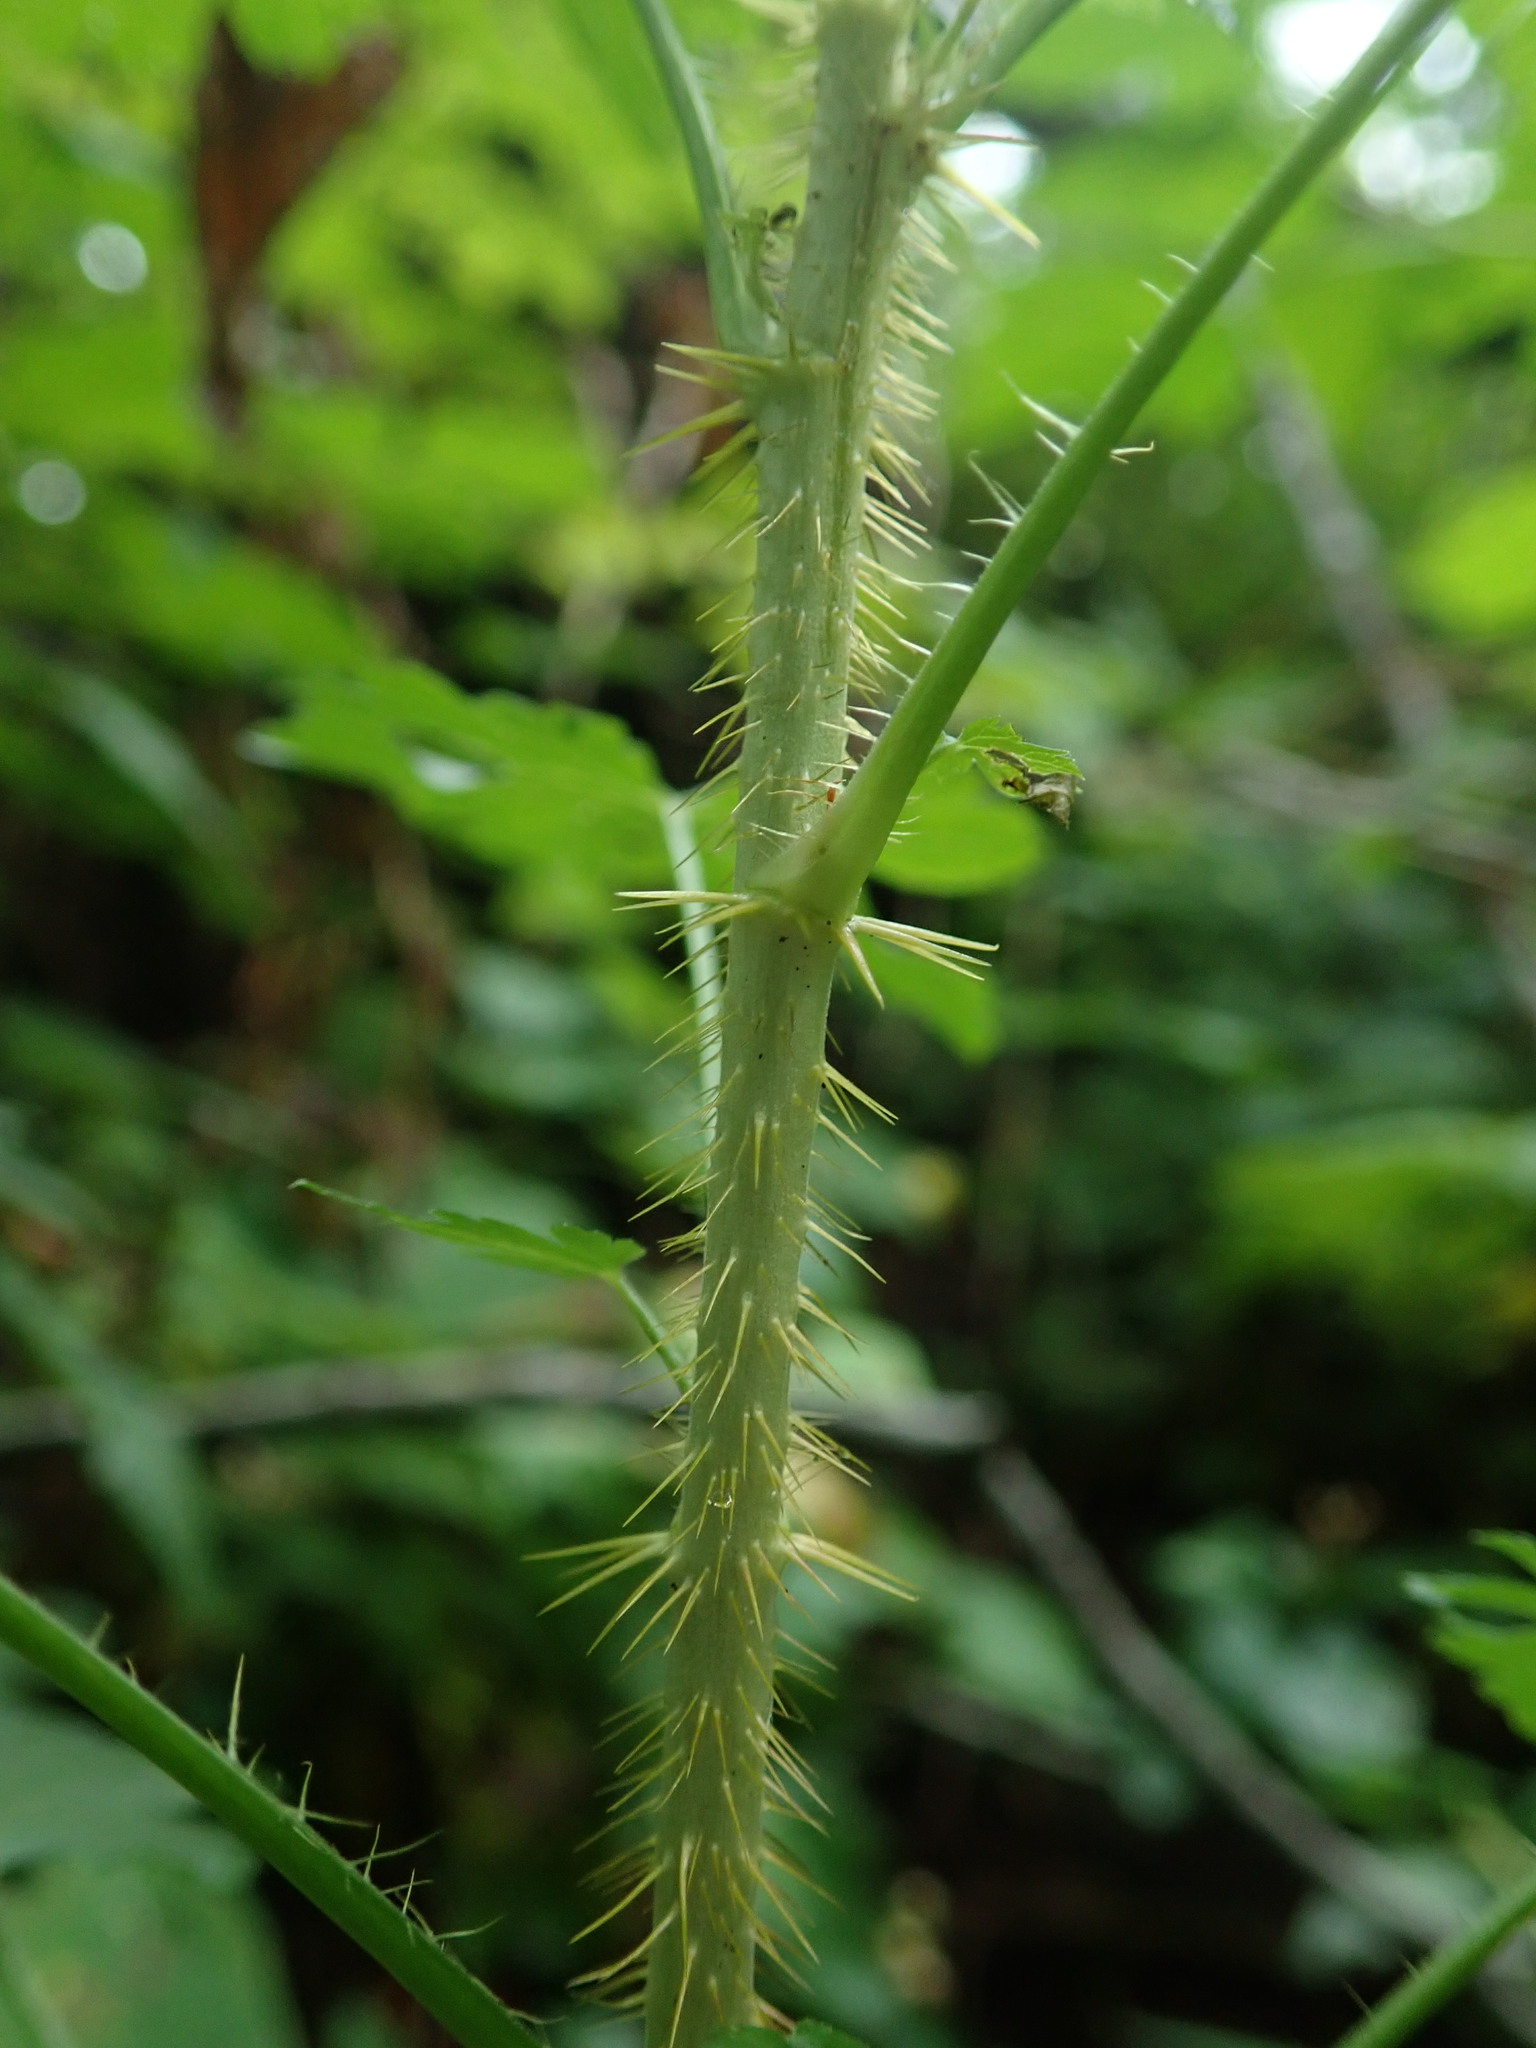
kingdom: Plantae
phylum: Tracheophyta
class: Magnoliopsida
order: Saxifragales
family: Grossulariaceae
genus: Ribes
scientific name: Ribes lacustre
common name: Black gooseberry
